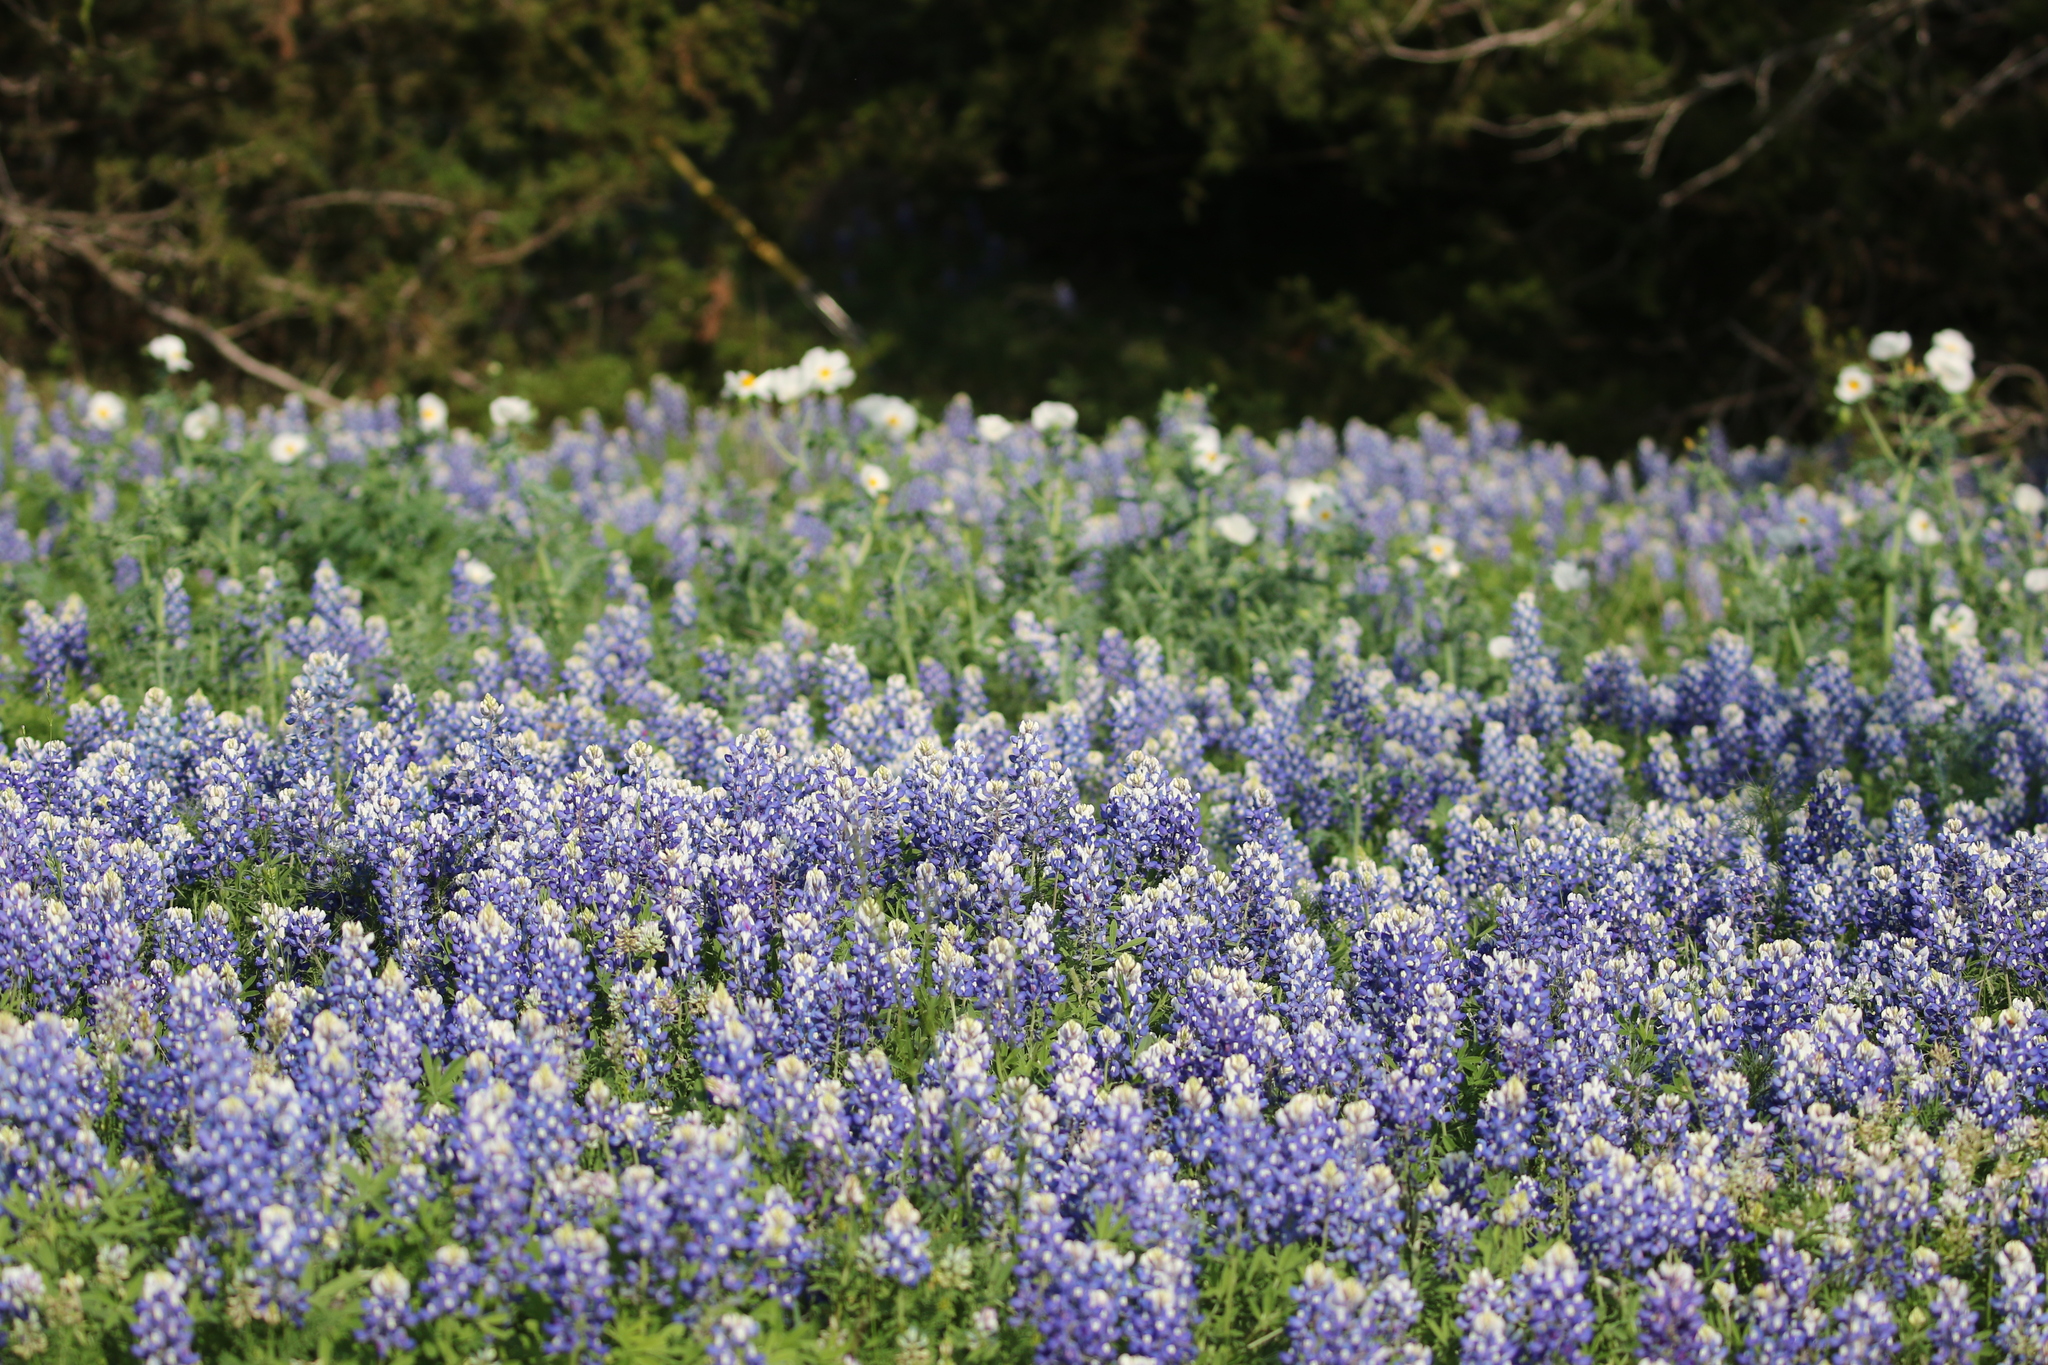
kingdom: Plantae
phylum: Tracheophyta
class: Magnoliopsida
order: Fabales
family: Fabaceae
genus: Lupinus
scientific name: Lupinus texensis
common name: Texas bluebonnet
